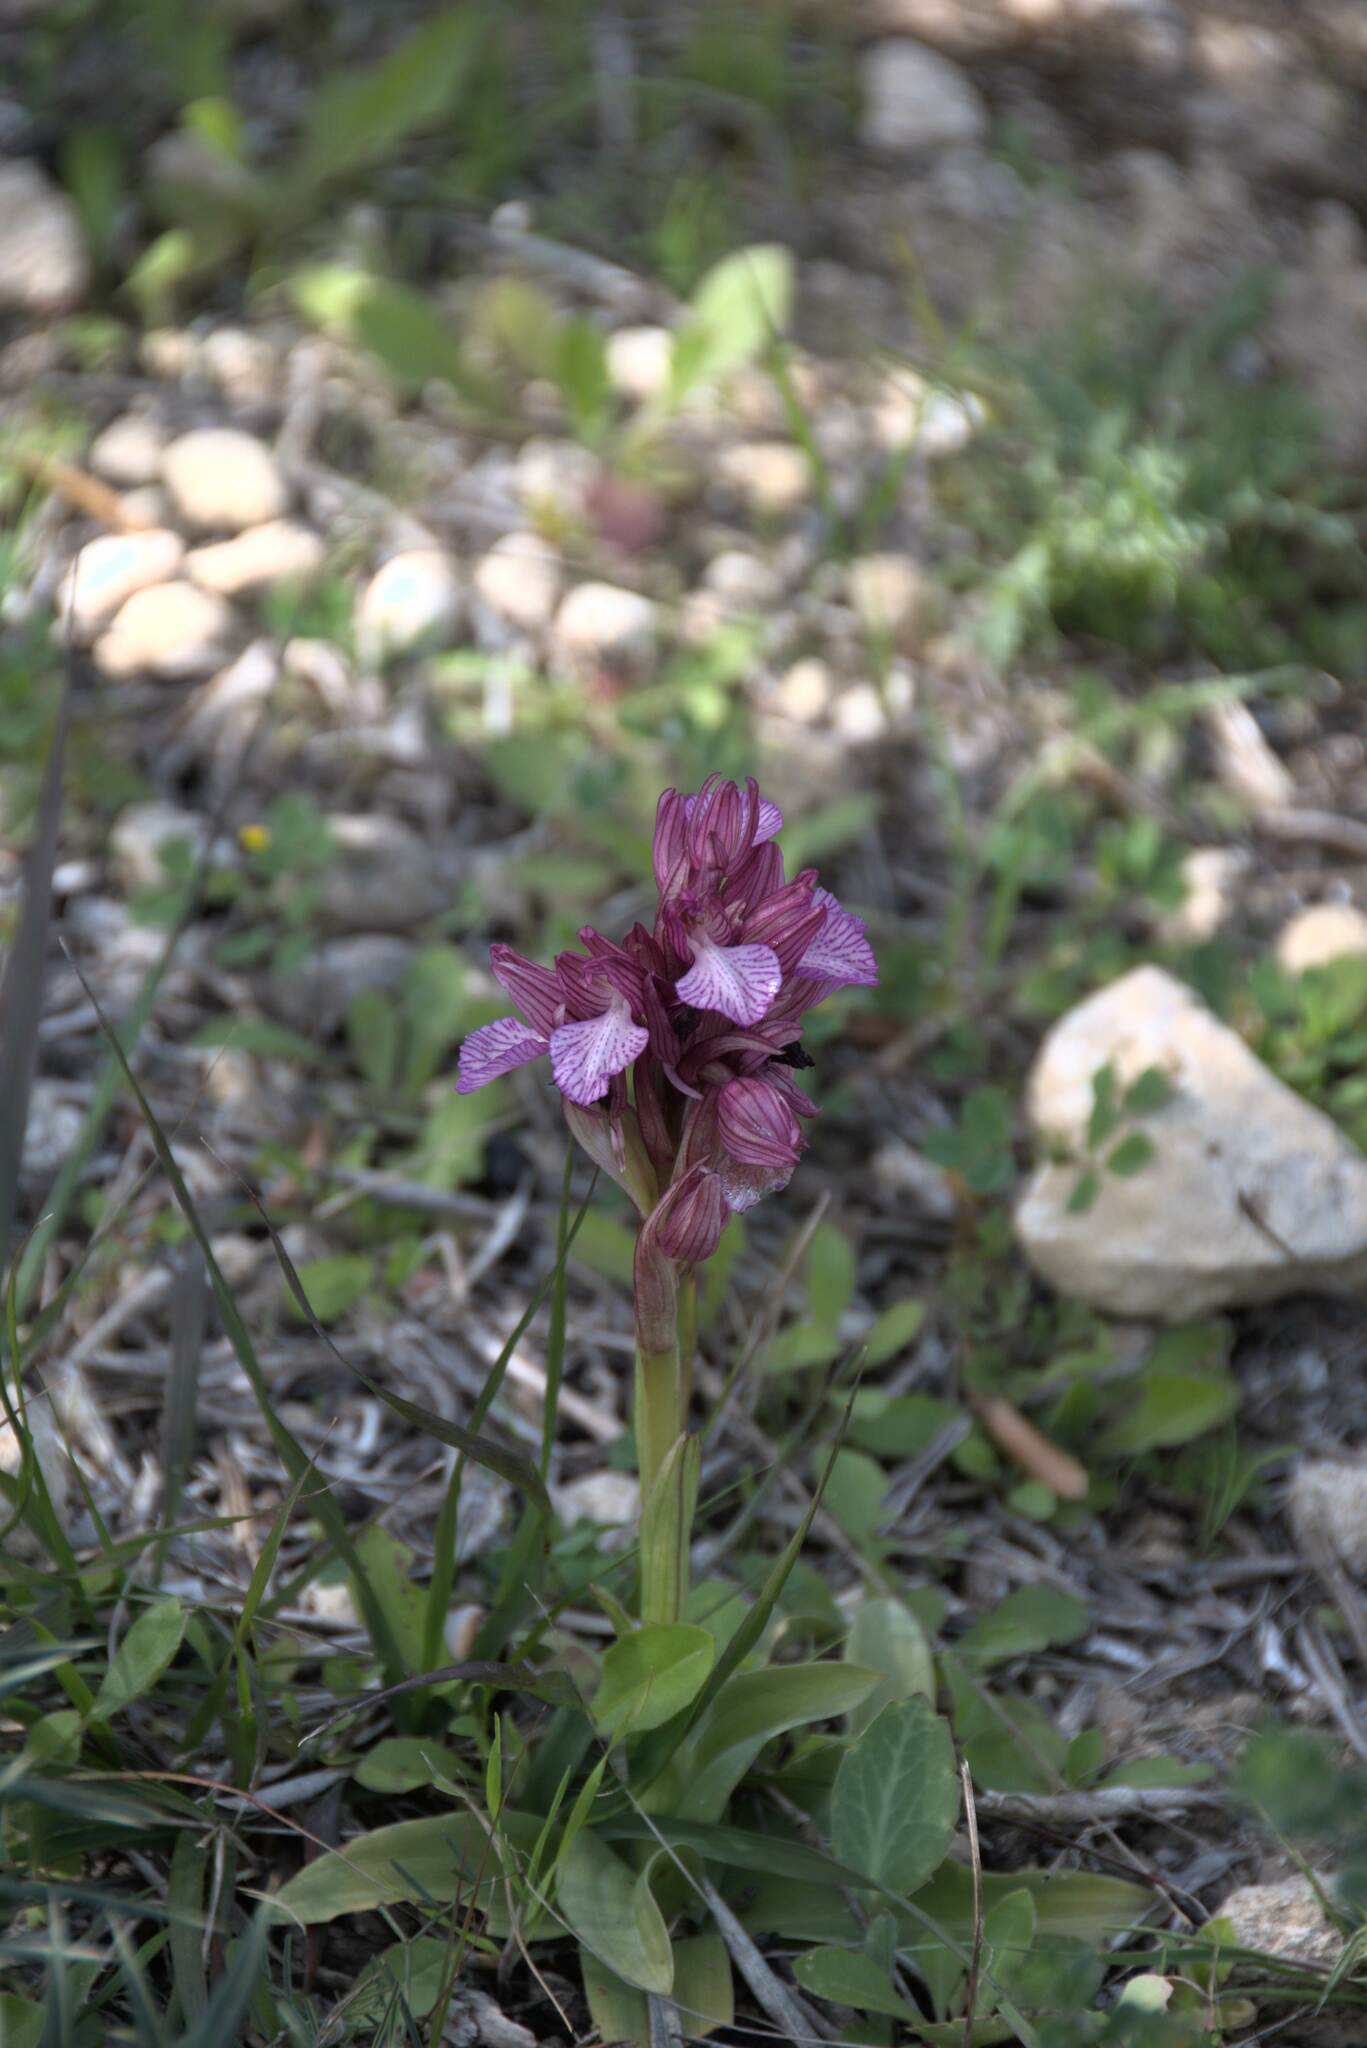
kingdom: Plantae
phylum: Tracheophyta
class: Liliopsida
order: Asparagales
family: Orchidaceae
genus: Anacamptis
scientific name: Anacamptis papilionacea
